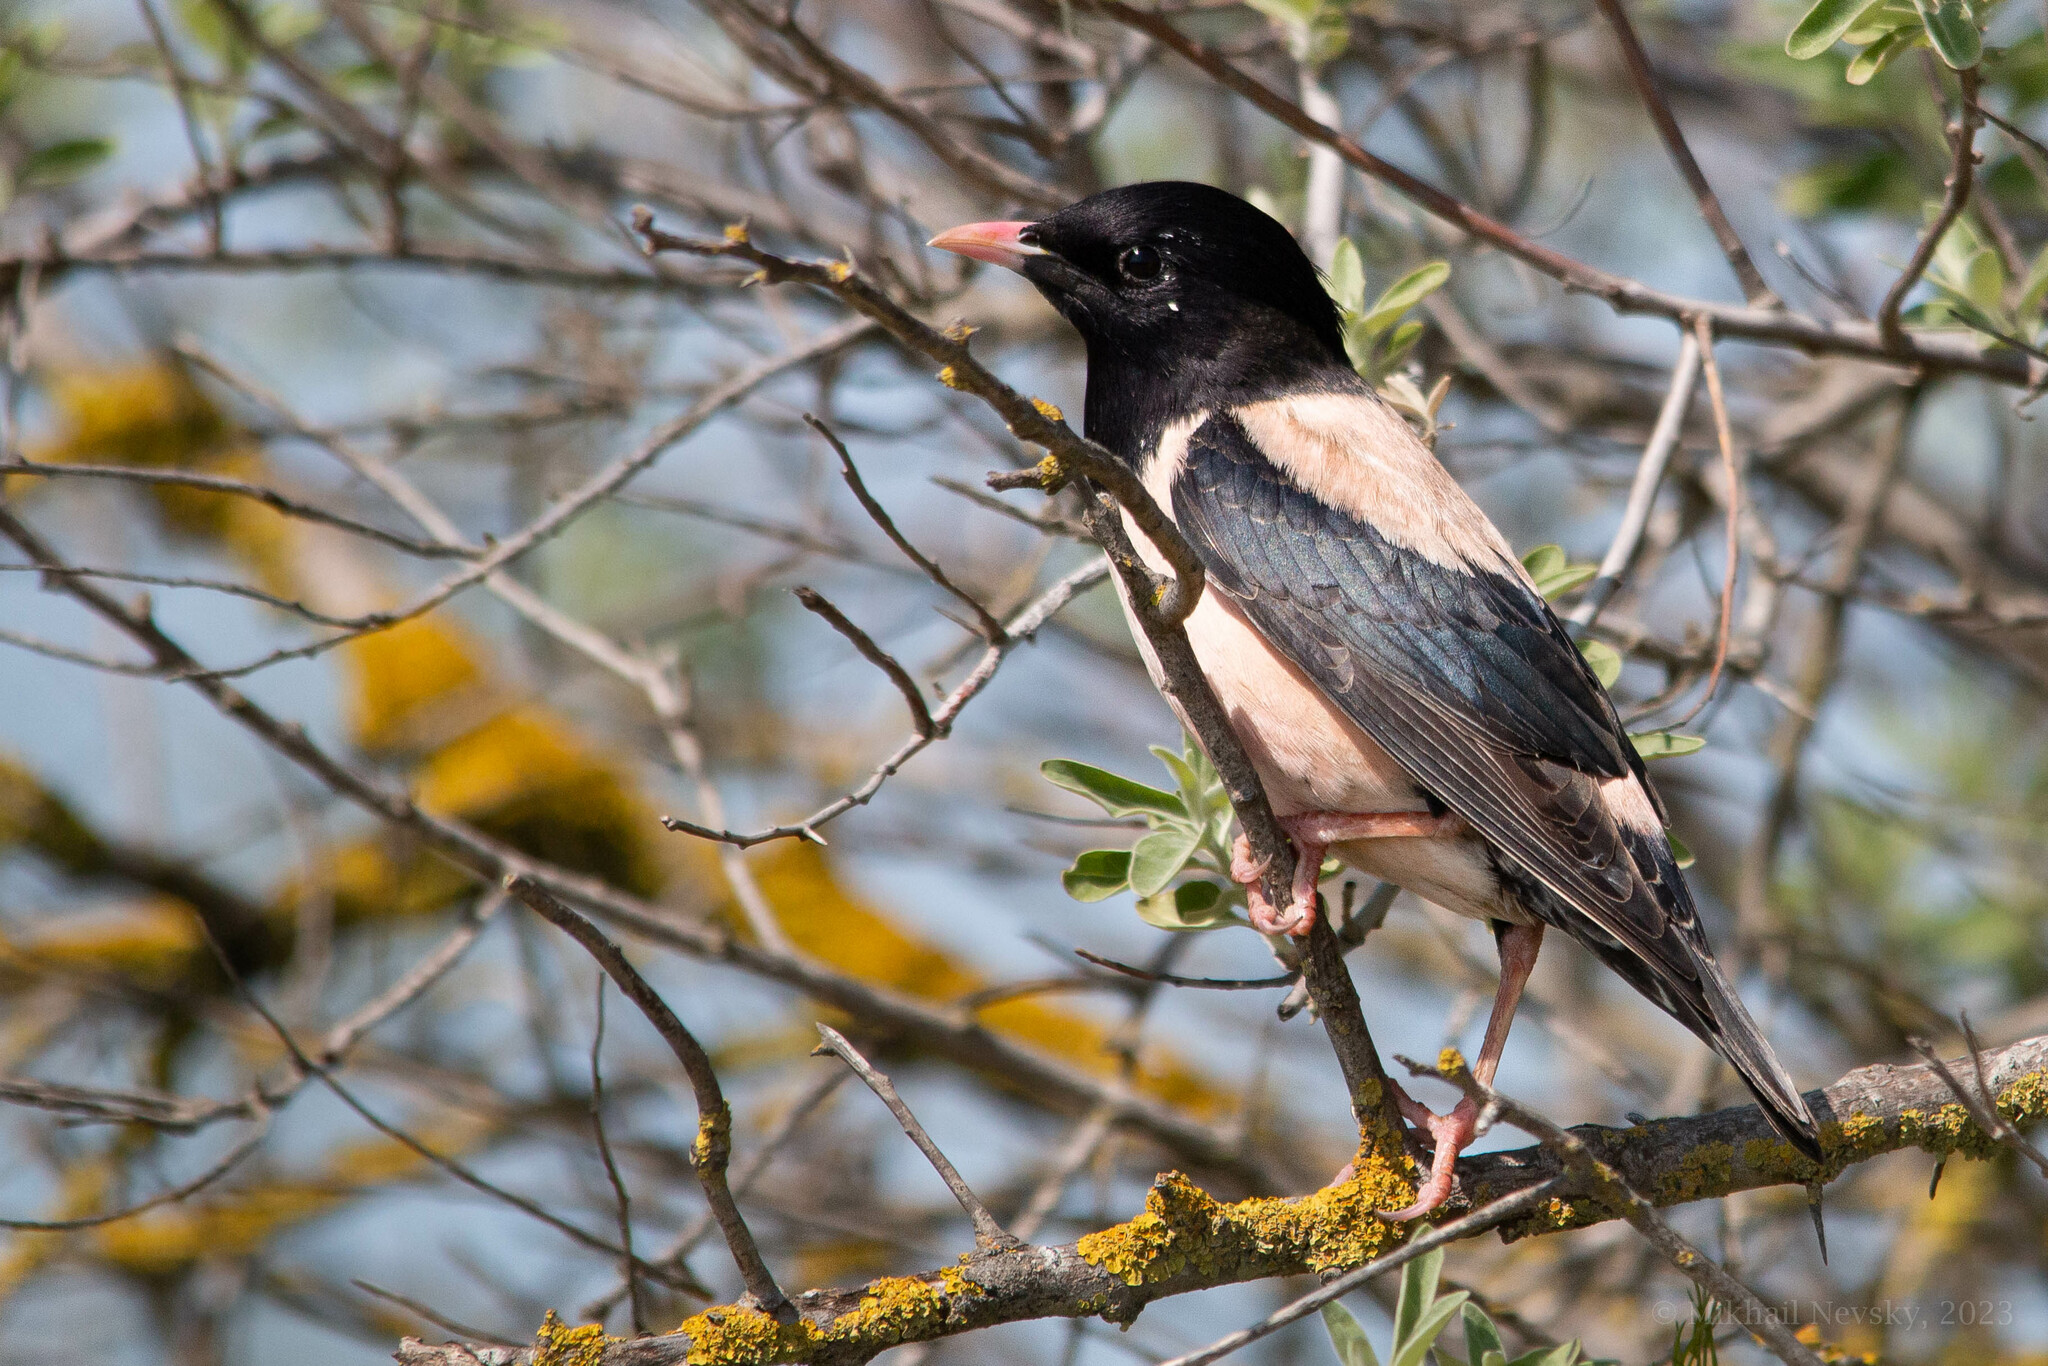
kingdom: Animalia
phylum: Chordata
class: Aves
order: Passeriformes
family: Sturnidae
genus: Pastor
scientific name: Pastor roseus
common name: Rosy starling
